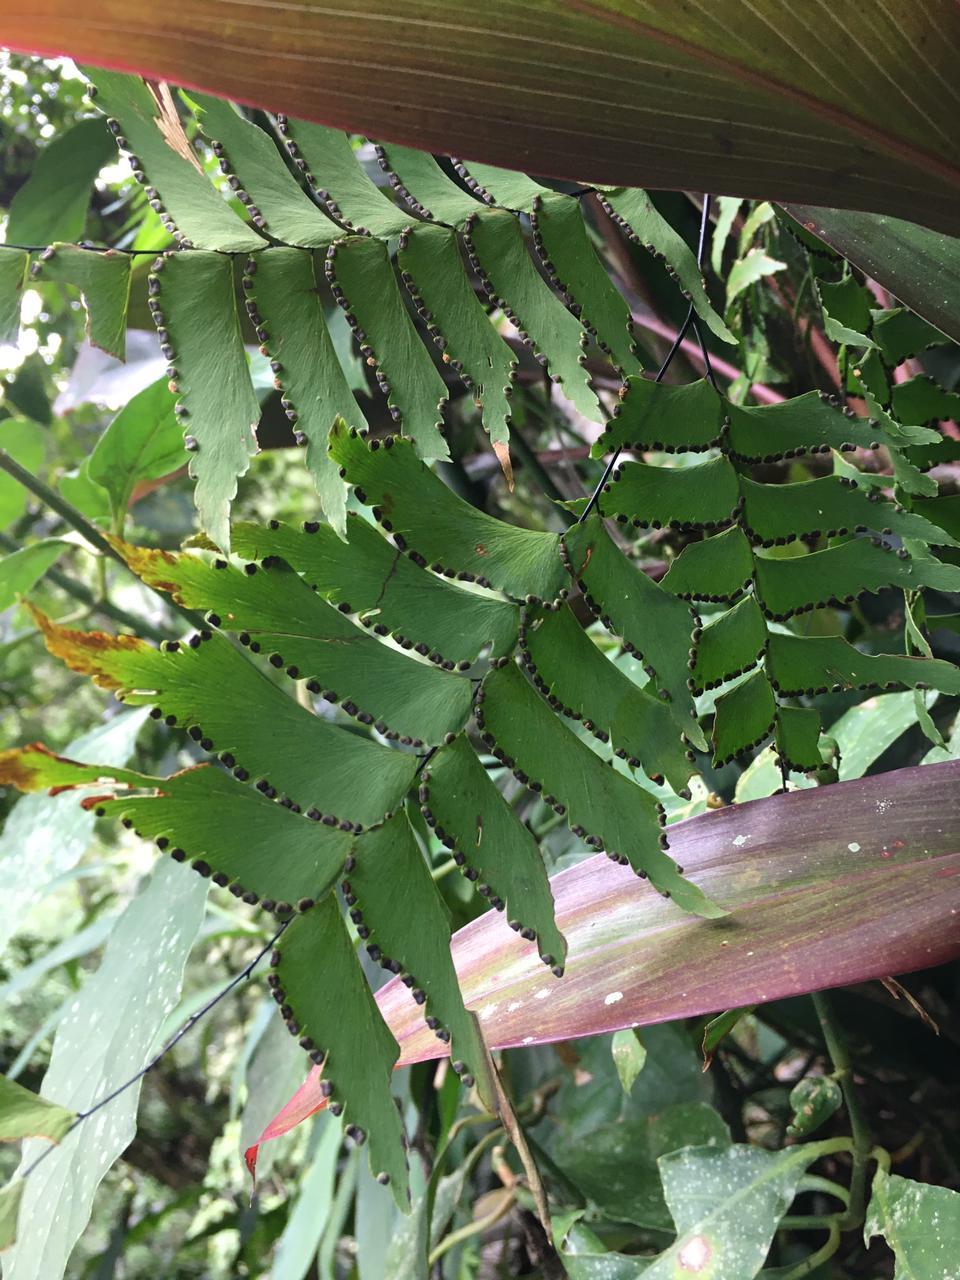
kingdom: Plantae
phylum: Tracheophyta
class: Polypodiopsida
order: Polypodiales
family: Pteridaceae
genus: Adiantum
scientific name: Adiantum trapeziforme
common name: Diamond maidenhair
